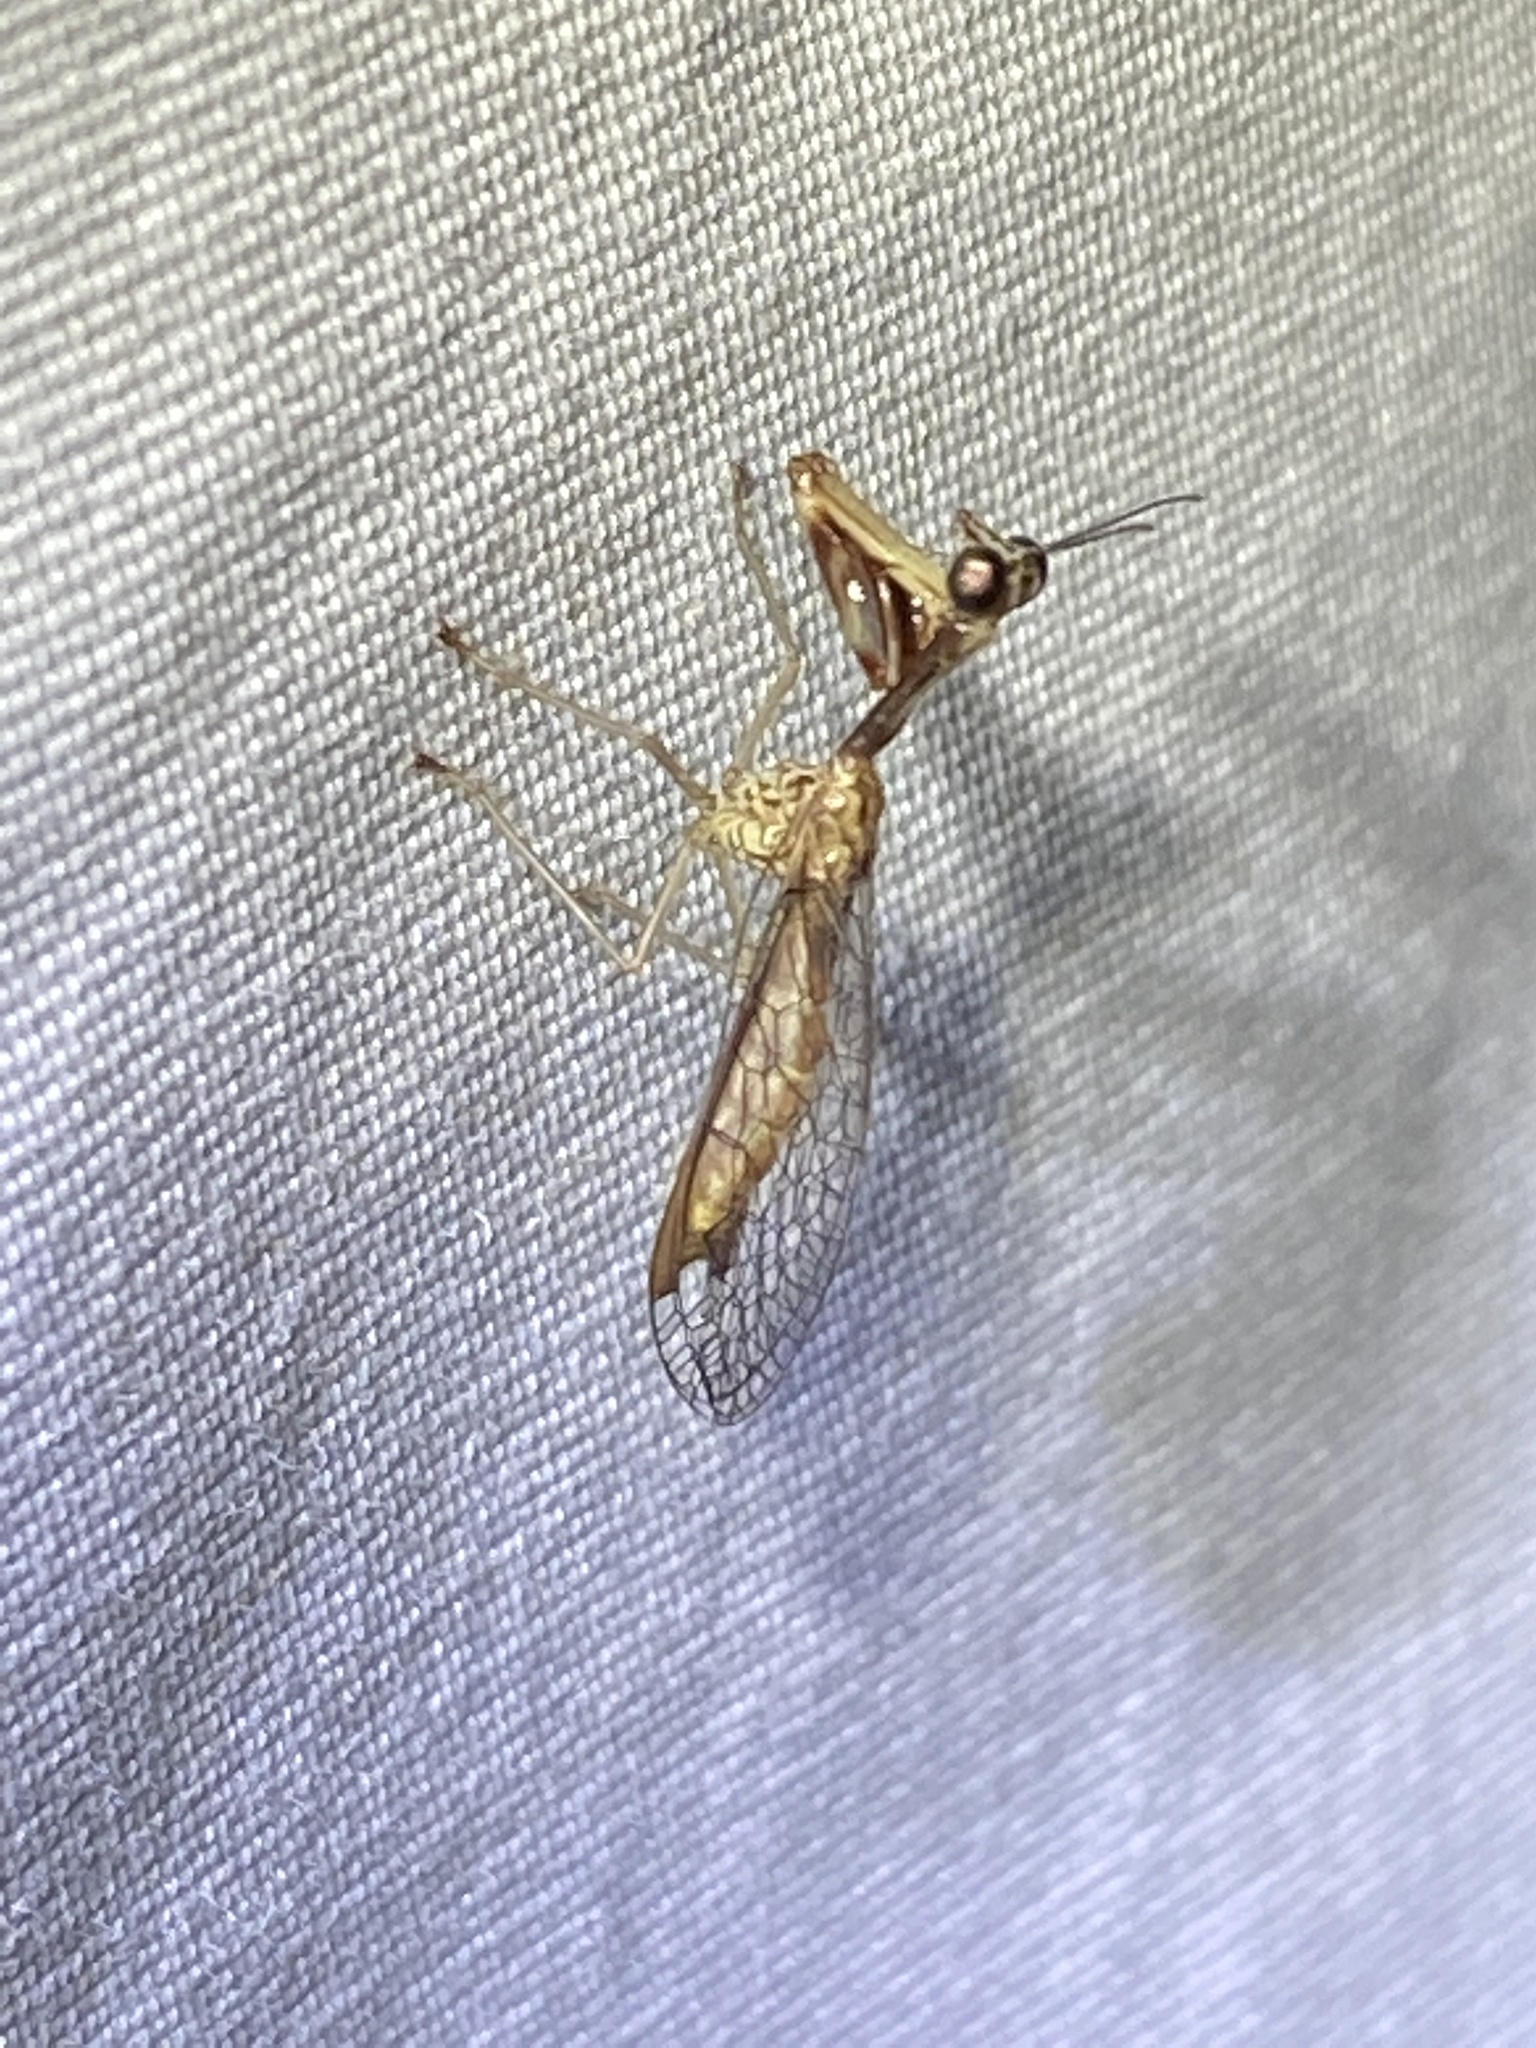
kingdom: Animalia
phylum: Arthropoda
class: Insecta
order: Neuroptera
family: Mantispidae
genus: Leptomantispa
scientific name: Leptomantispa pulchella
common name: Stevens's mantidfly
